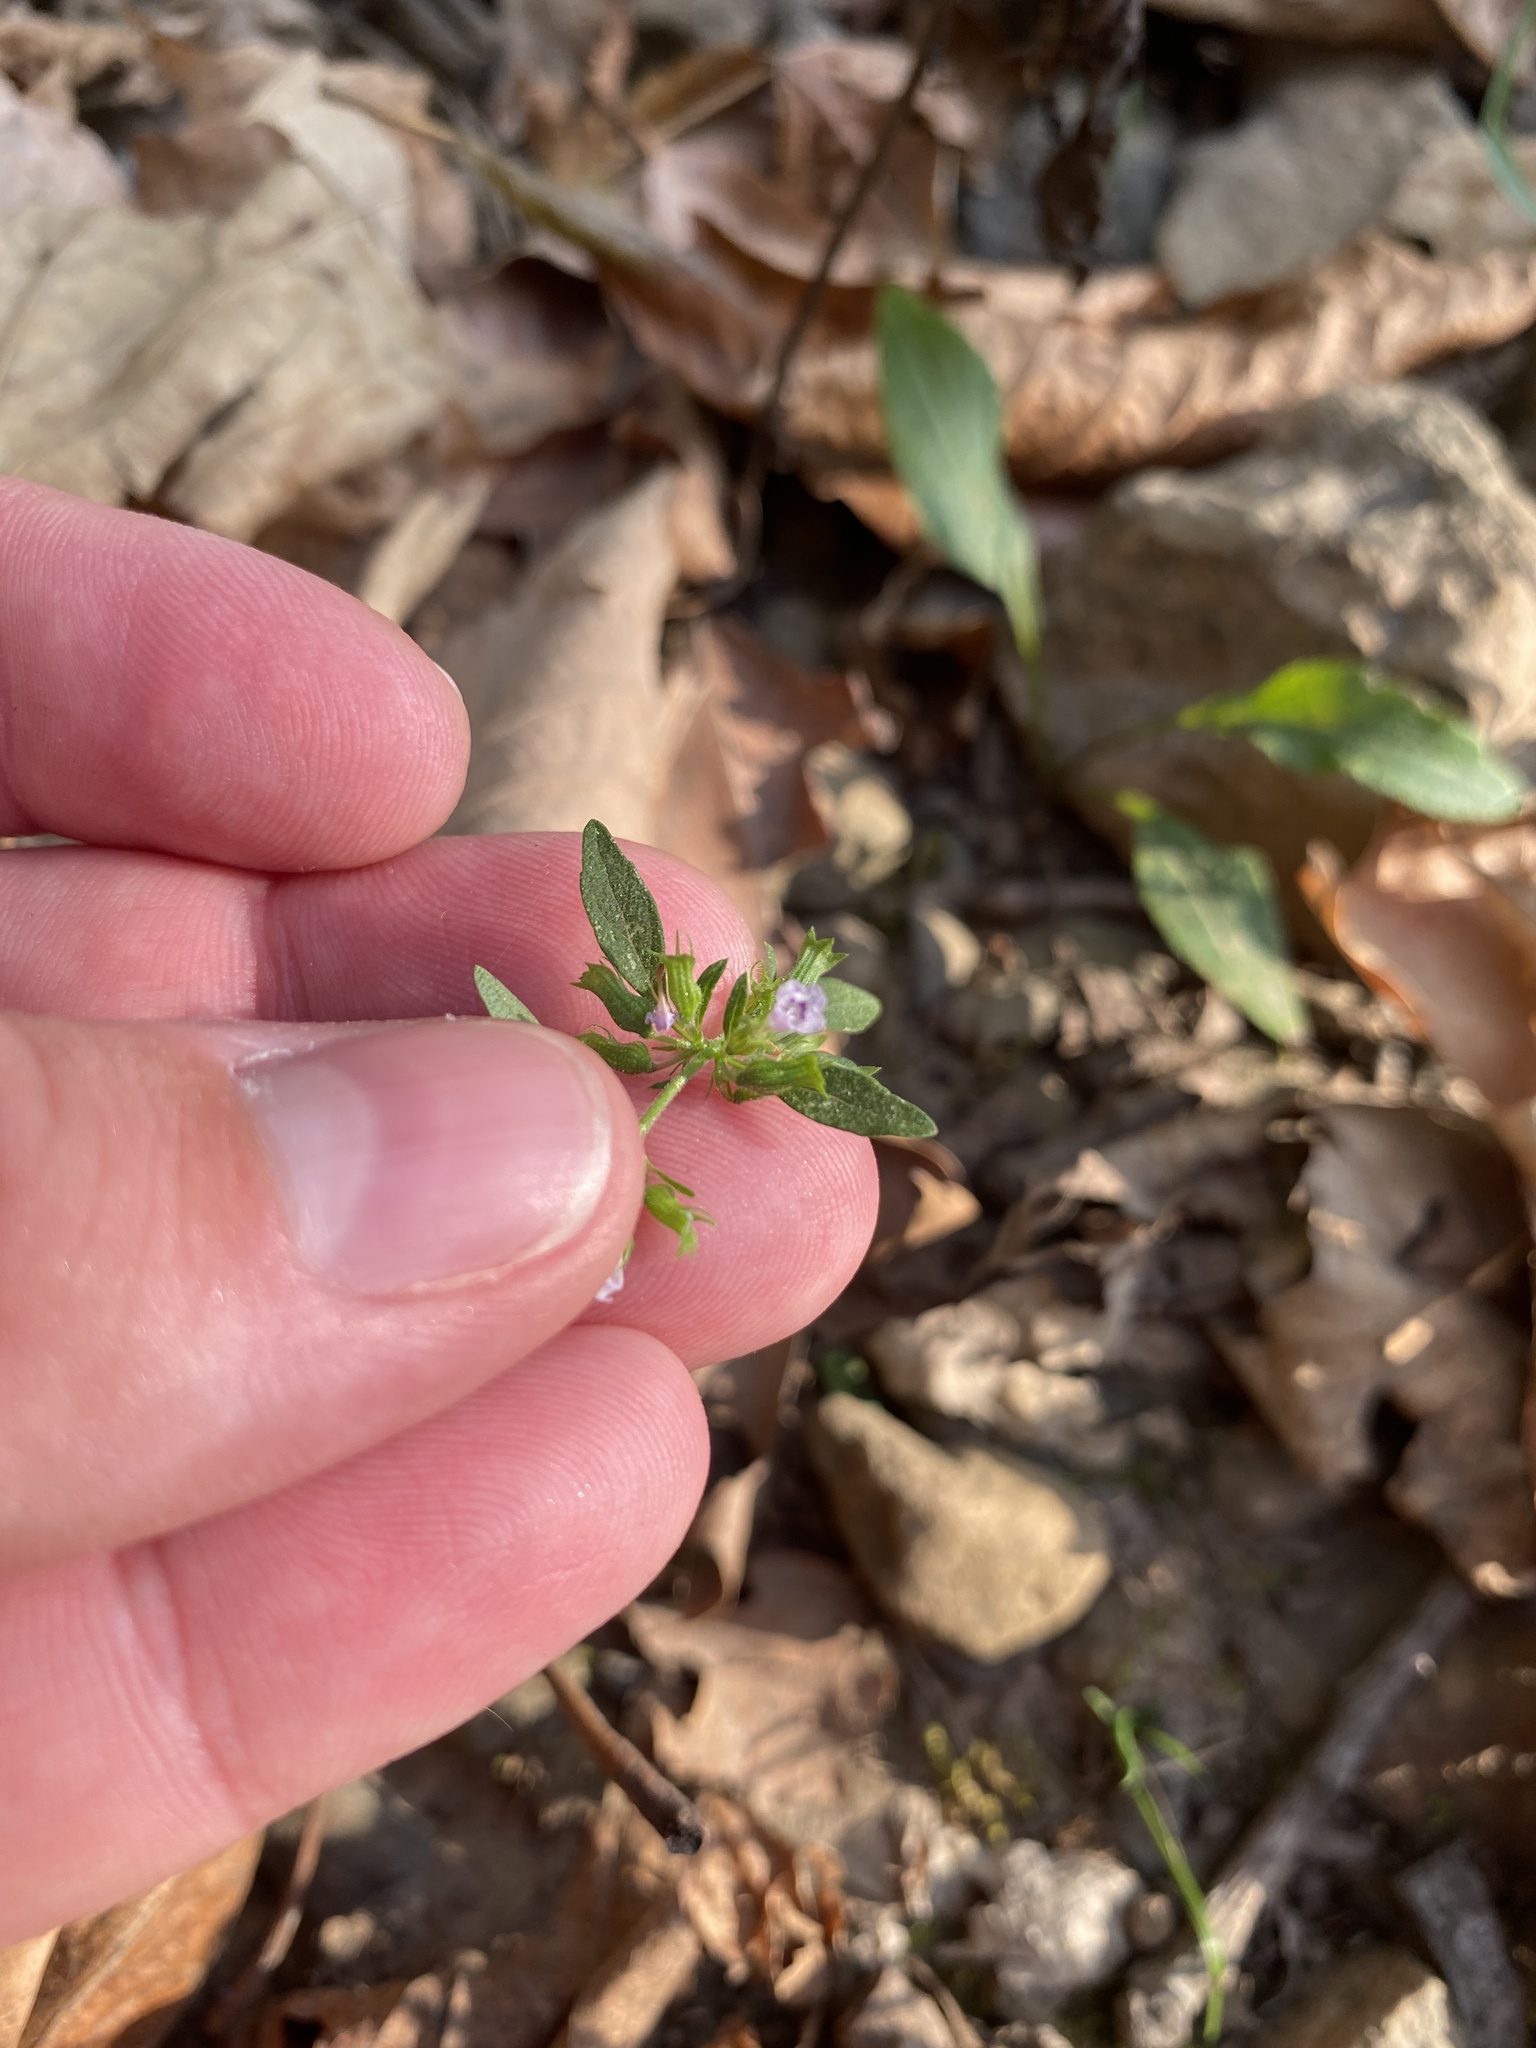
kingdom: Plantae
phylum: Tracheophyta
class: Magnoliopsida
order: Lamiales
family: Lamiaceae
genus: Hedeoma
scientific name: Hedeoma pulegioides
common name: American false pennyroyal
